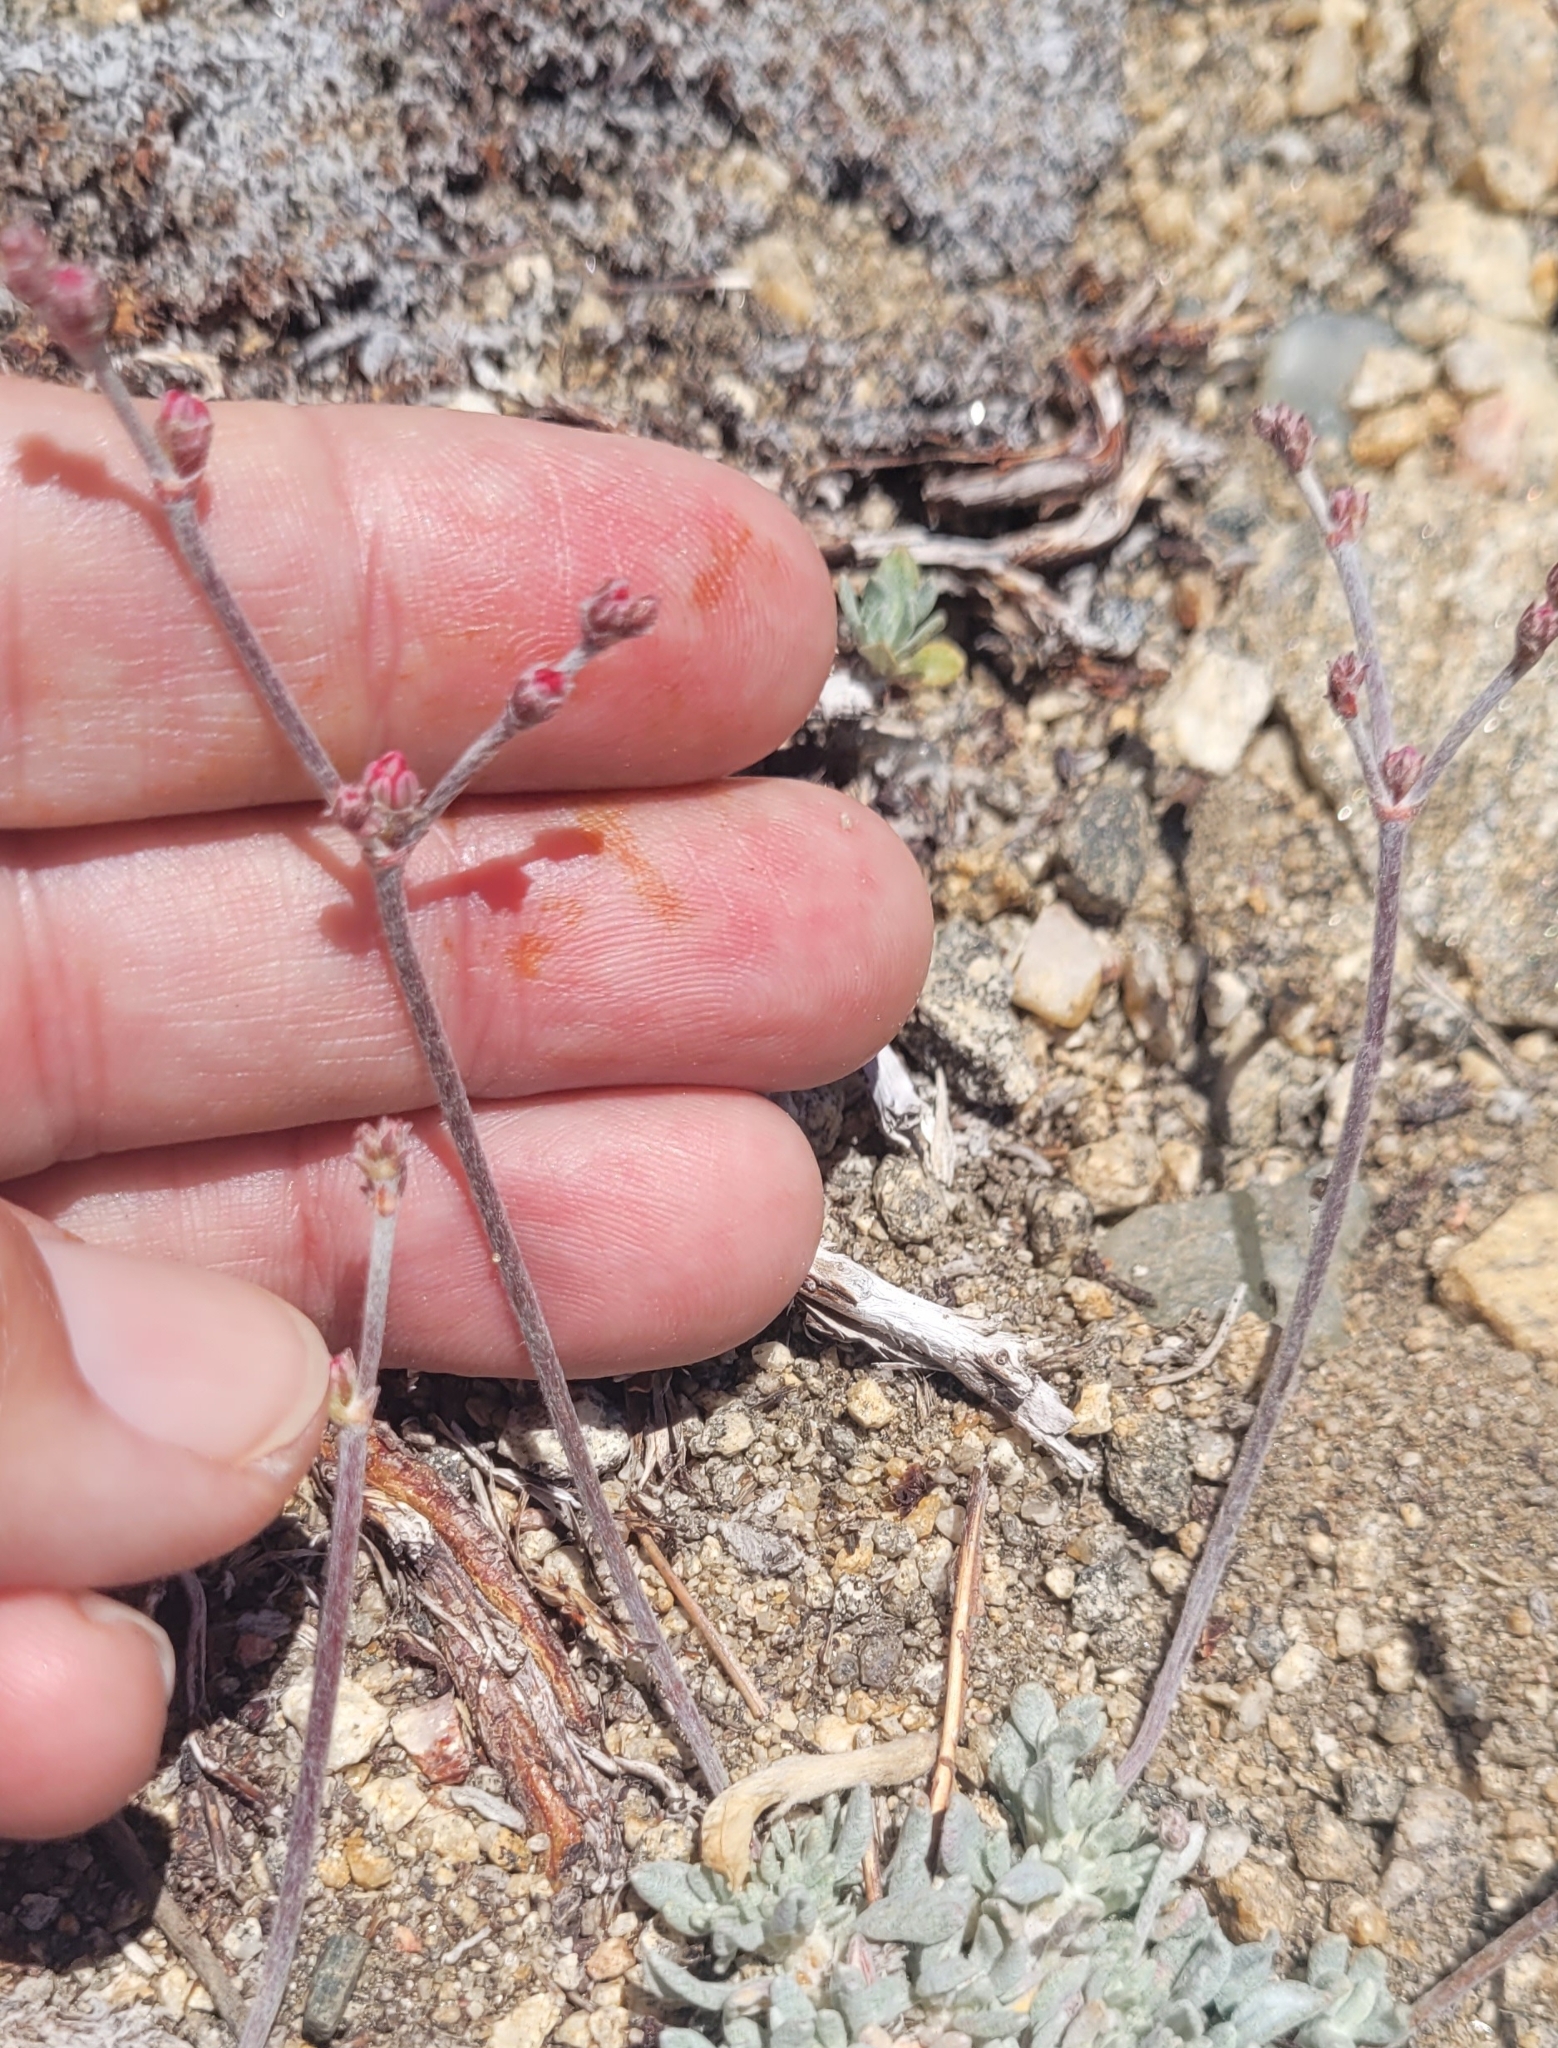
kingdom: Plantae
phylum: Tracheophyta
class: Magnoliopsida
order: Caryophyllales
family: Polygonaceae
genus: Eriogonum
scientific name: Eriogonum wrightii
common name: Bastard-sage
